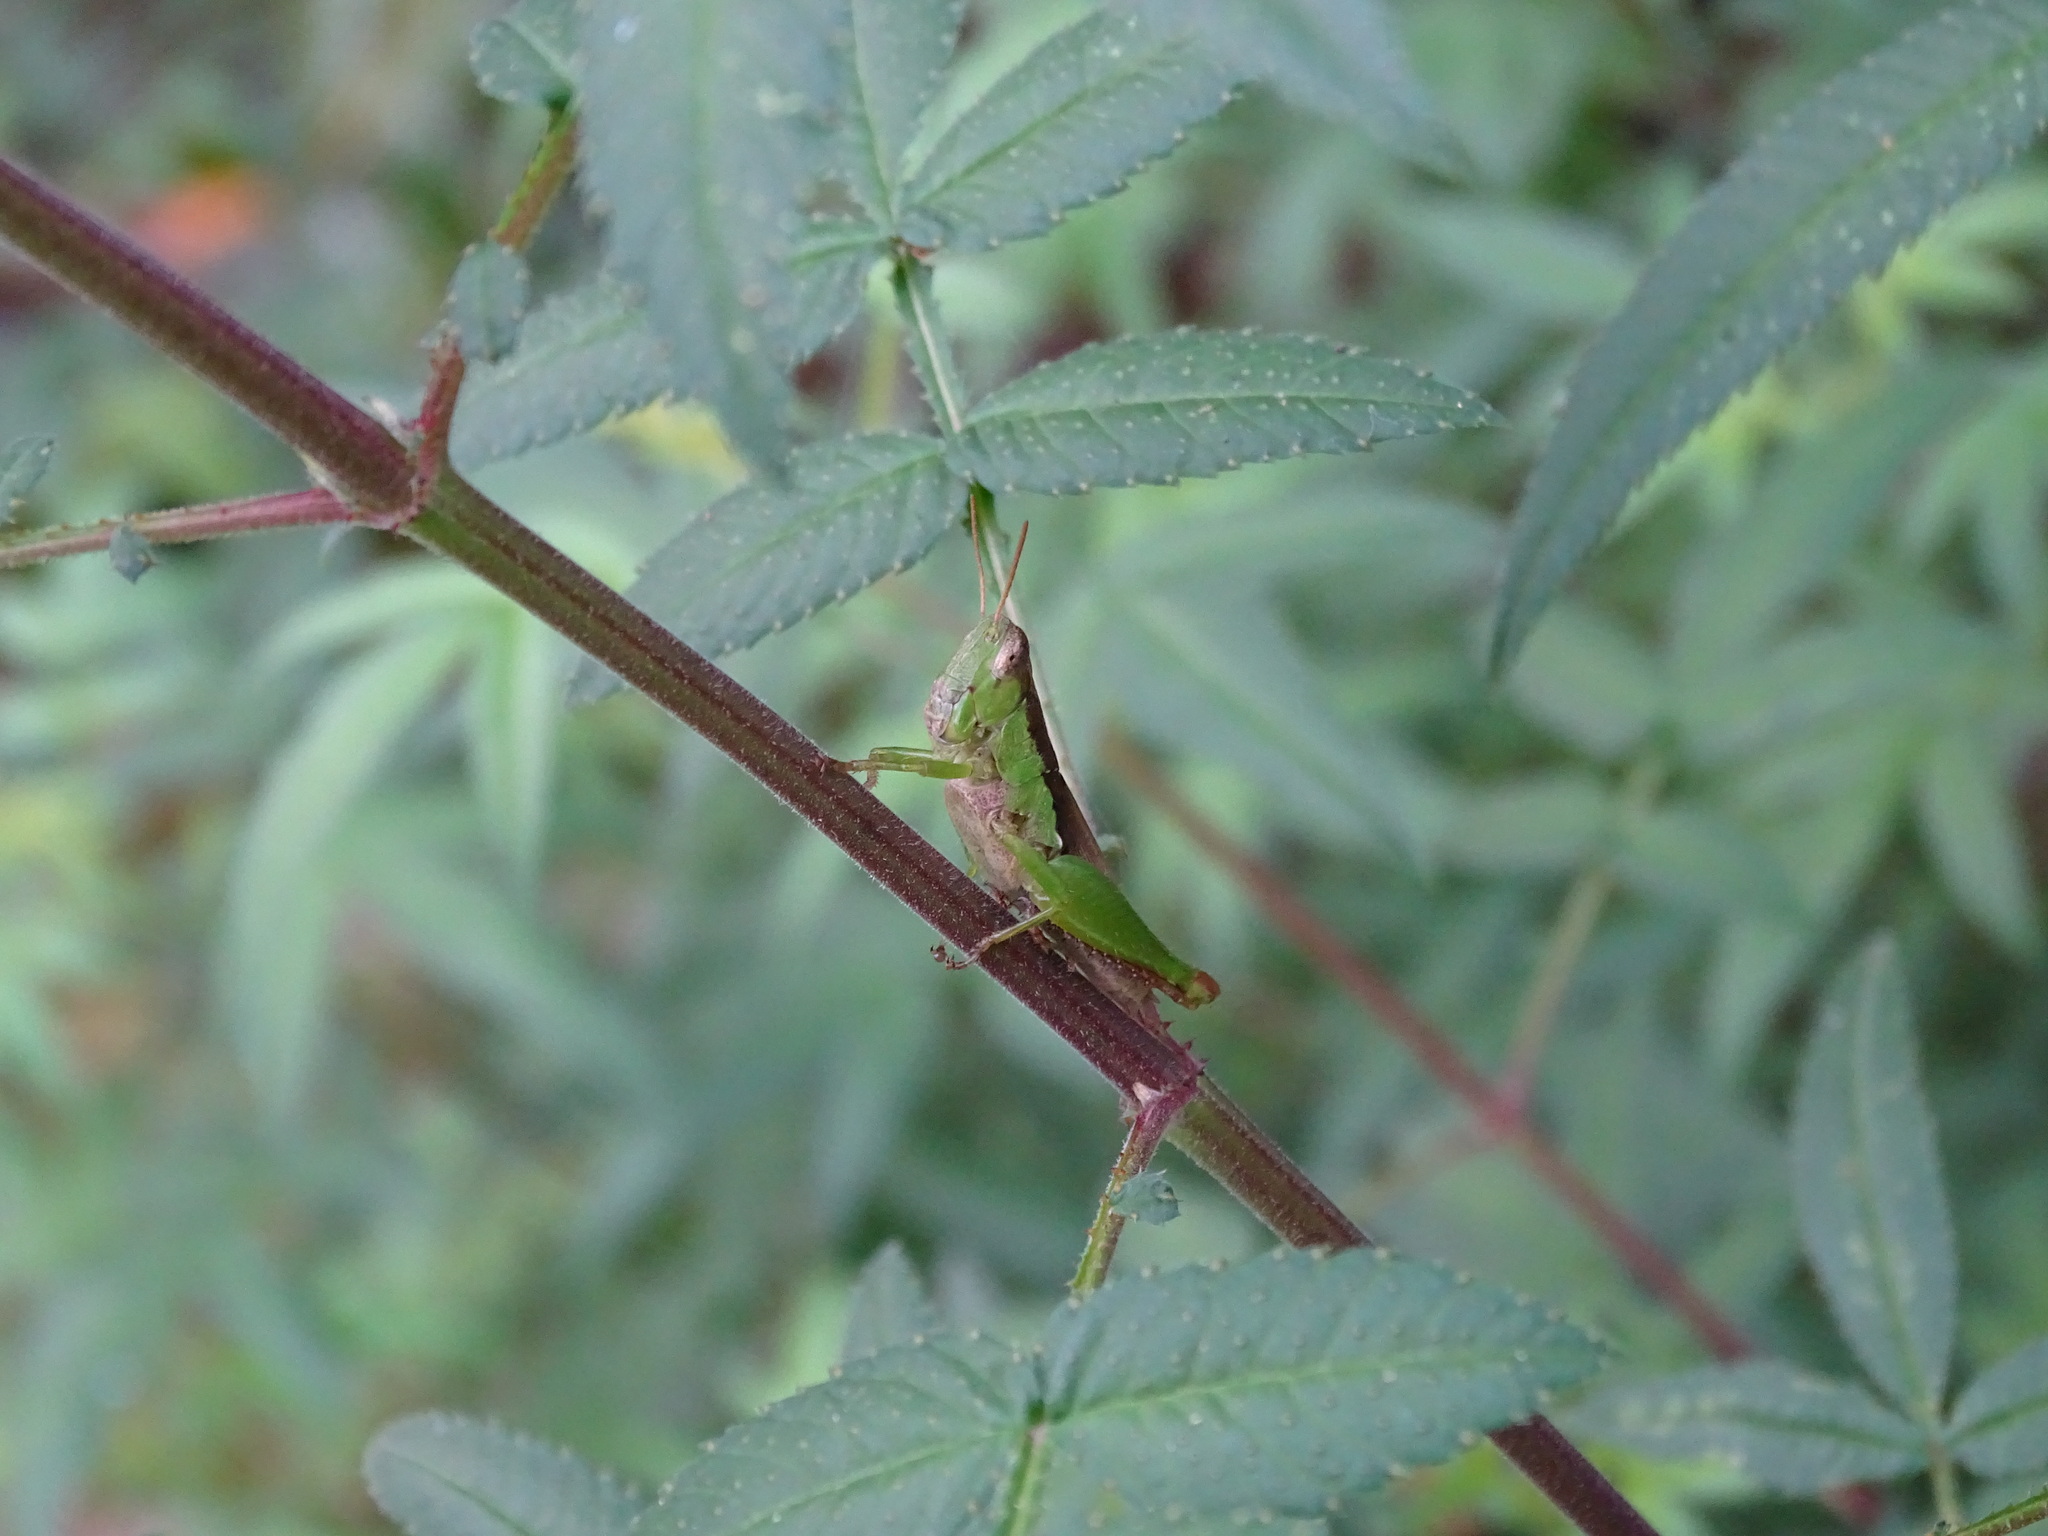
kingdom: Animalia
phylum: Arthropoda
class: Insecta
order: Orthoptera
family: Acrididae
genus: Pseudoxya
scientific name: Pseudoxya diminuta
